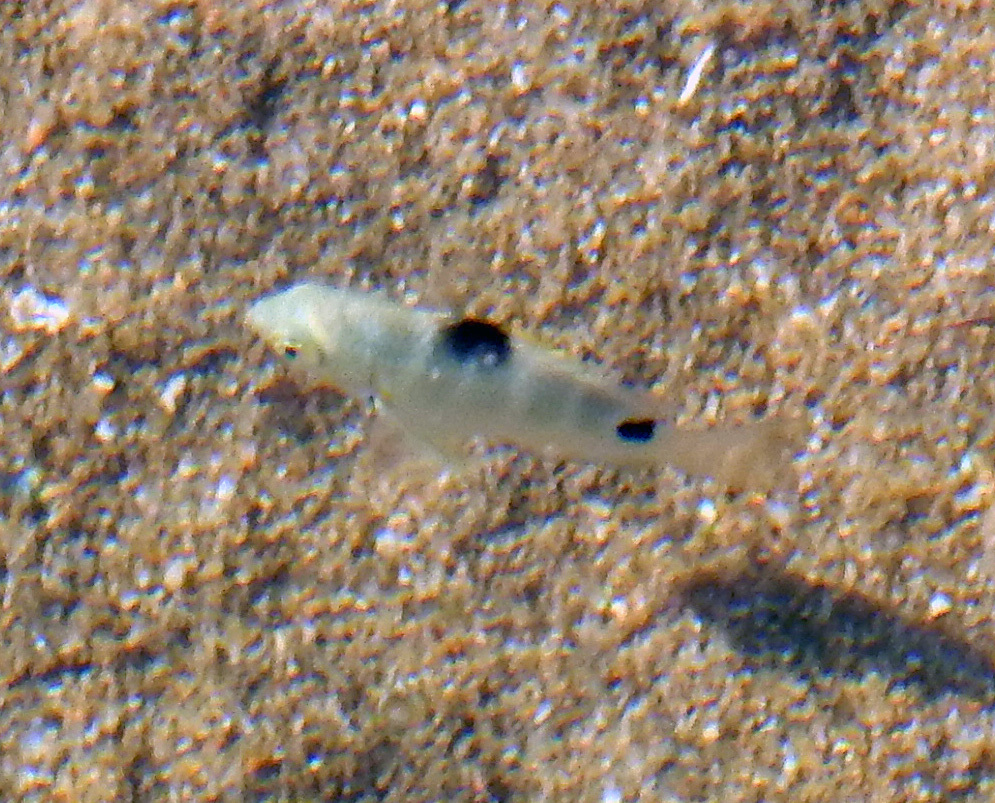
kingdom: Animalia
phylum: Chordata
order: Perciformes
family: Pomacentridae
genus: Abudefduf
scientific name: Abudefduf sordidus
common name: Blackspot sergeant
